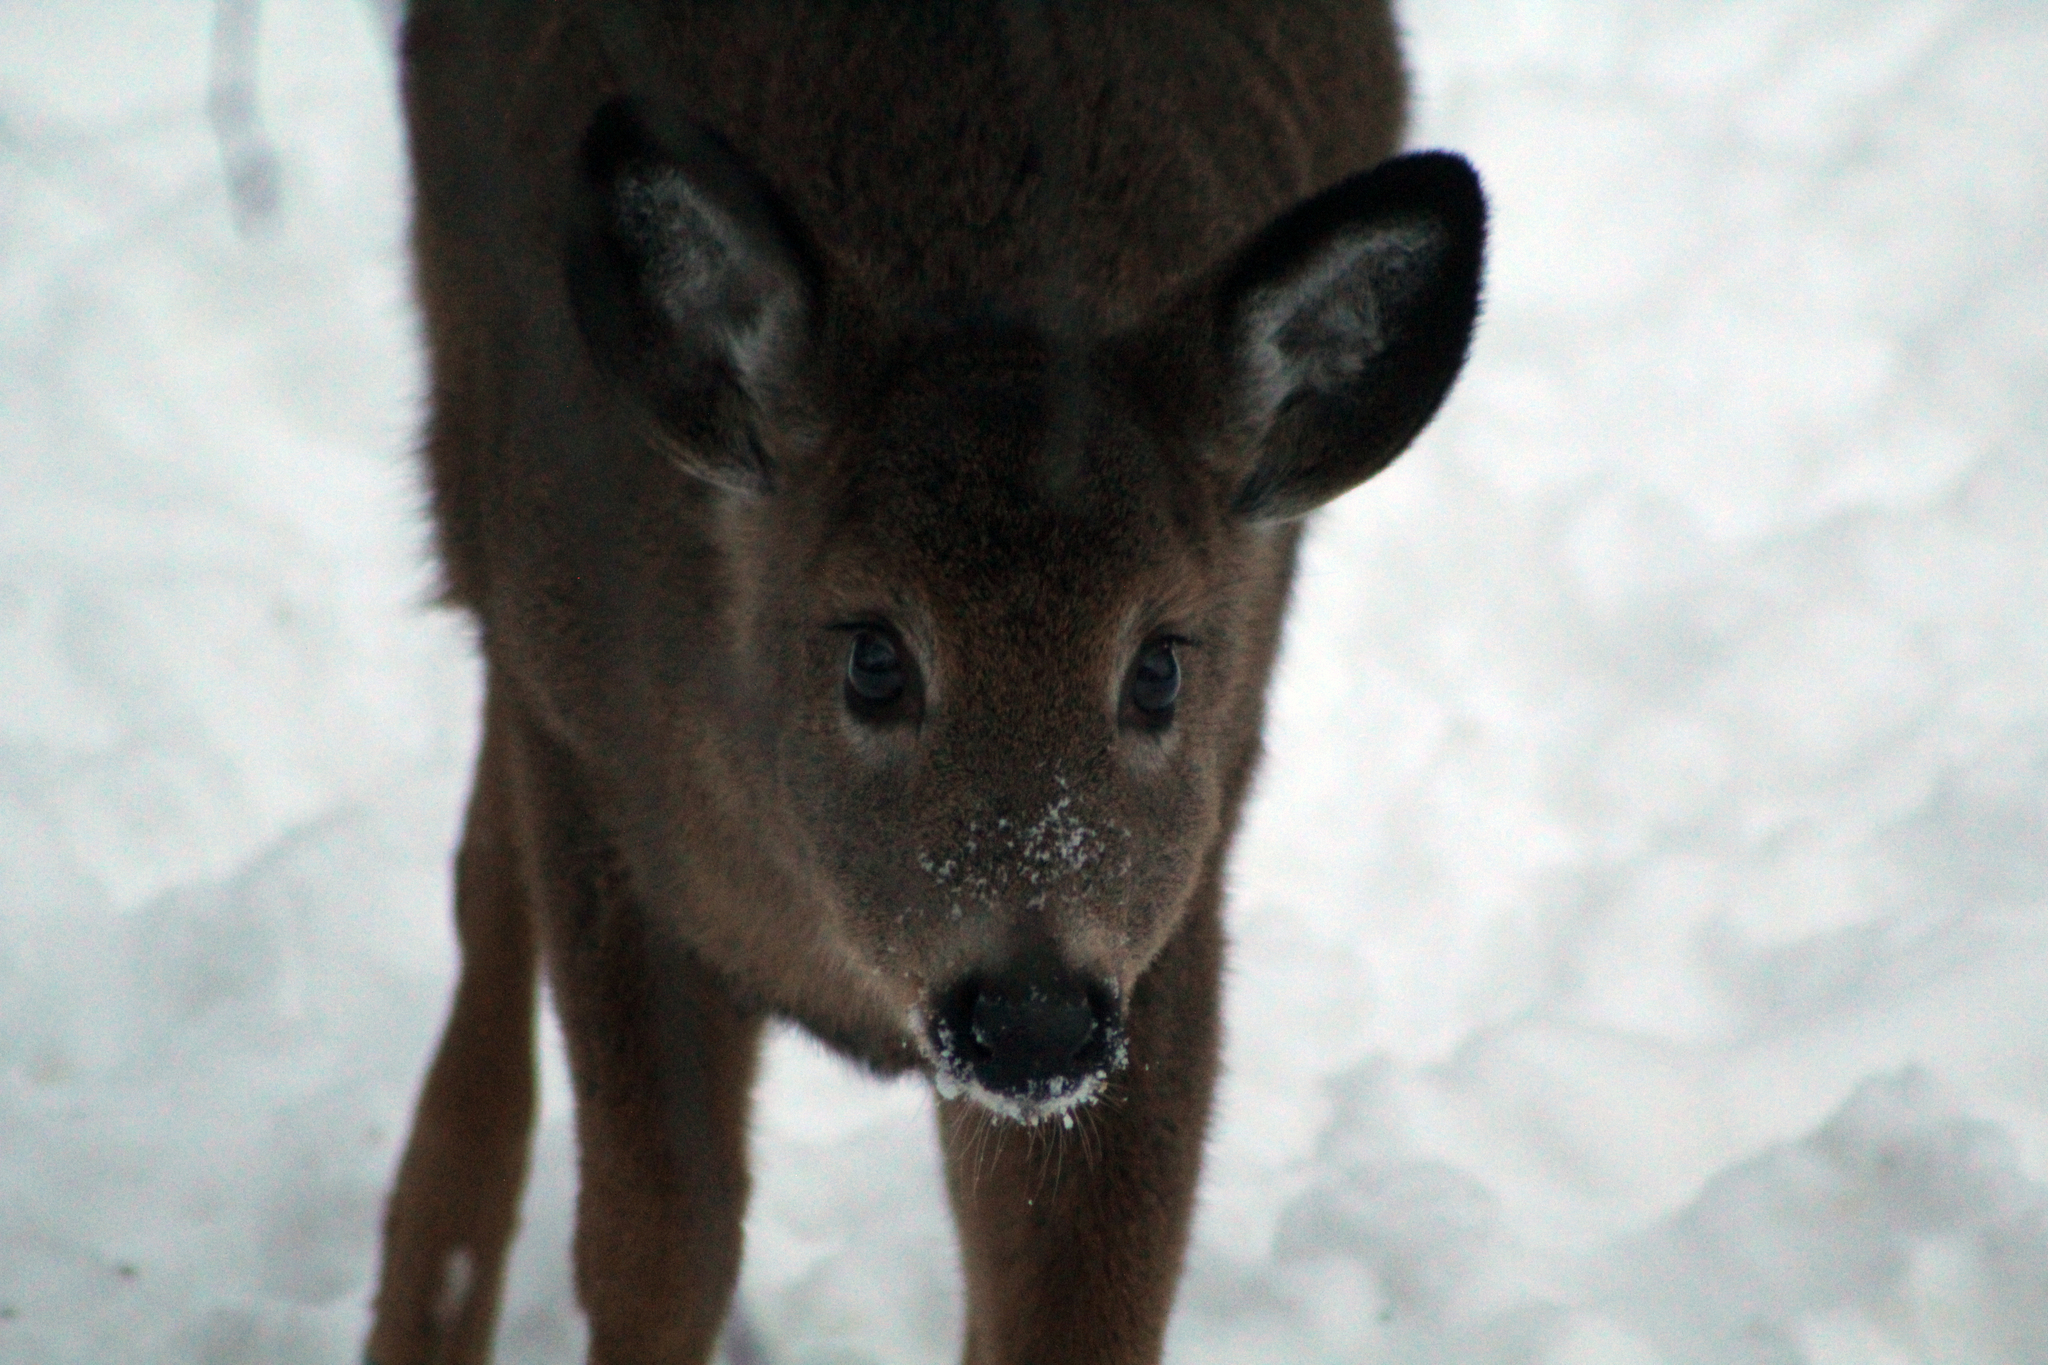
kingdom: Animalia
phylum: Chordata
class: Mammalia
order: Artiodactyla
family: Cervidae
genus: Odocoileus
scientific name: Odocoileus virginianus
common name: White-tailed deer
